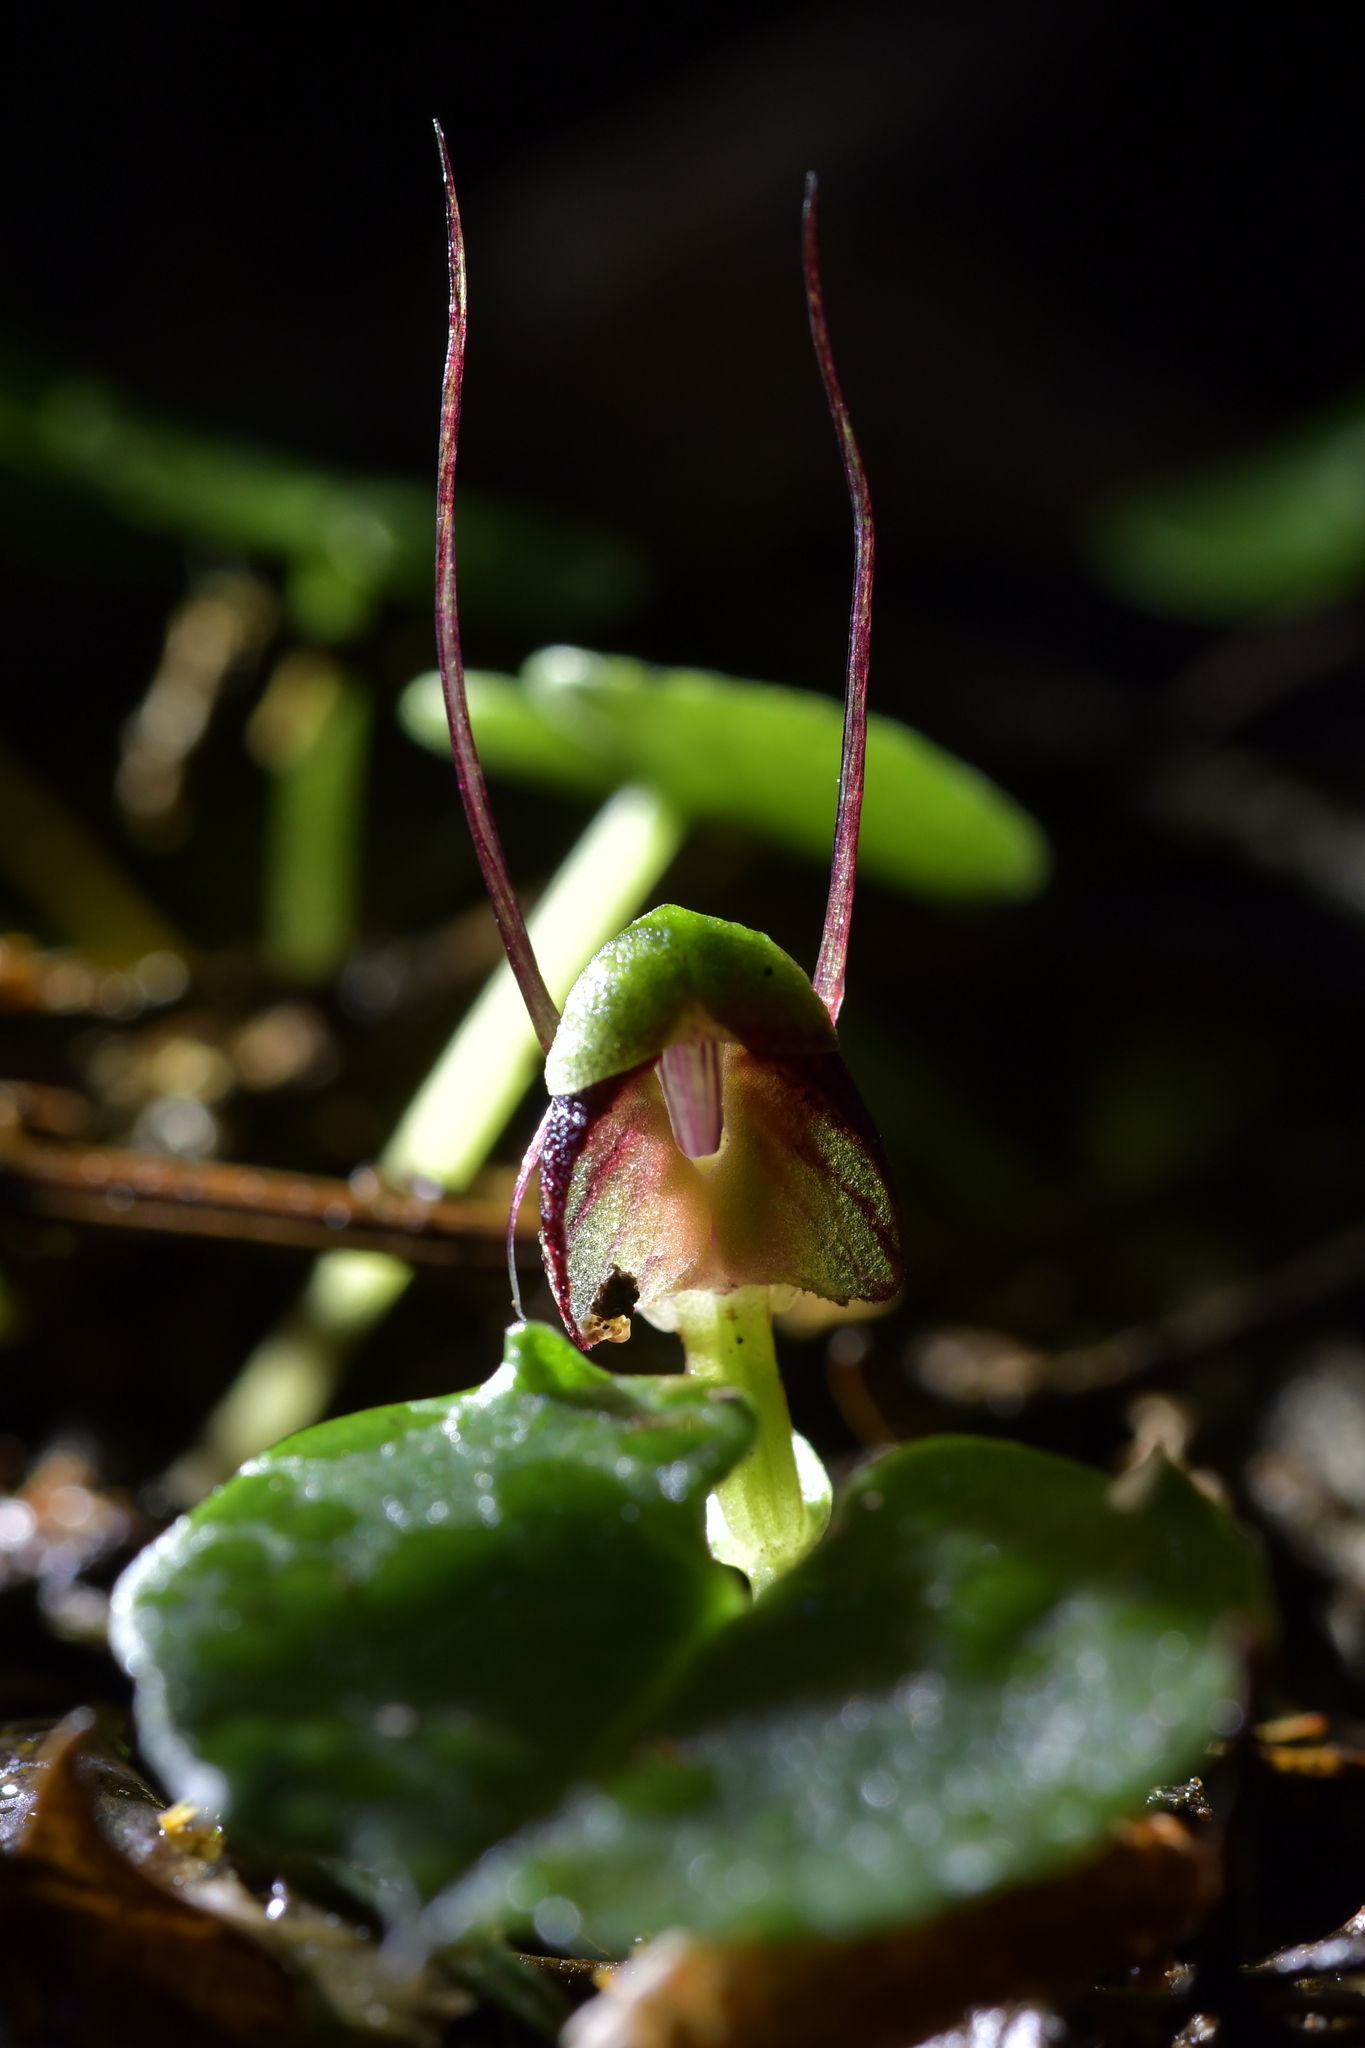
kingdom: Plantae
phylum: Tracheophyta
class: Liliopsida
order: Asparagales
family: Orchidaceae
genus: Corybas
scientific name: Corybas vitreus
